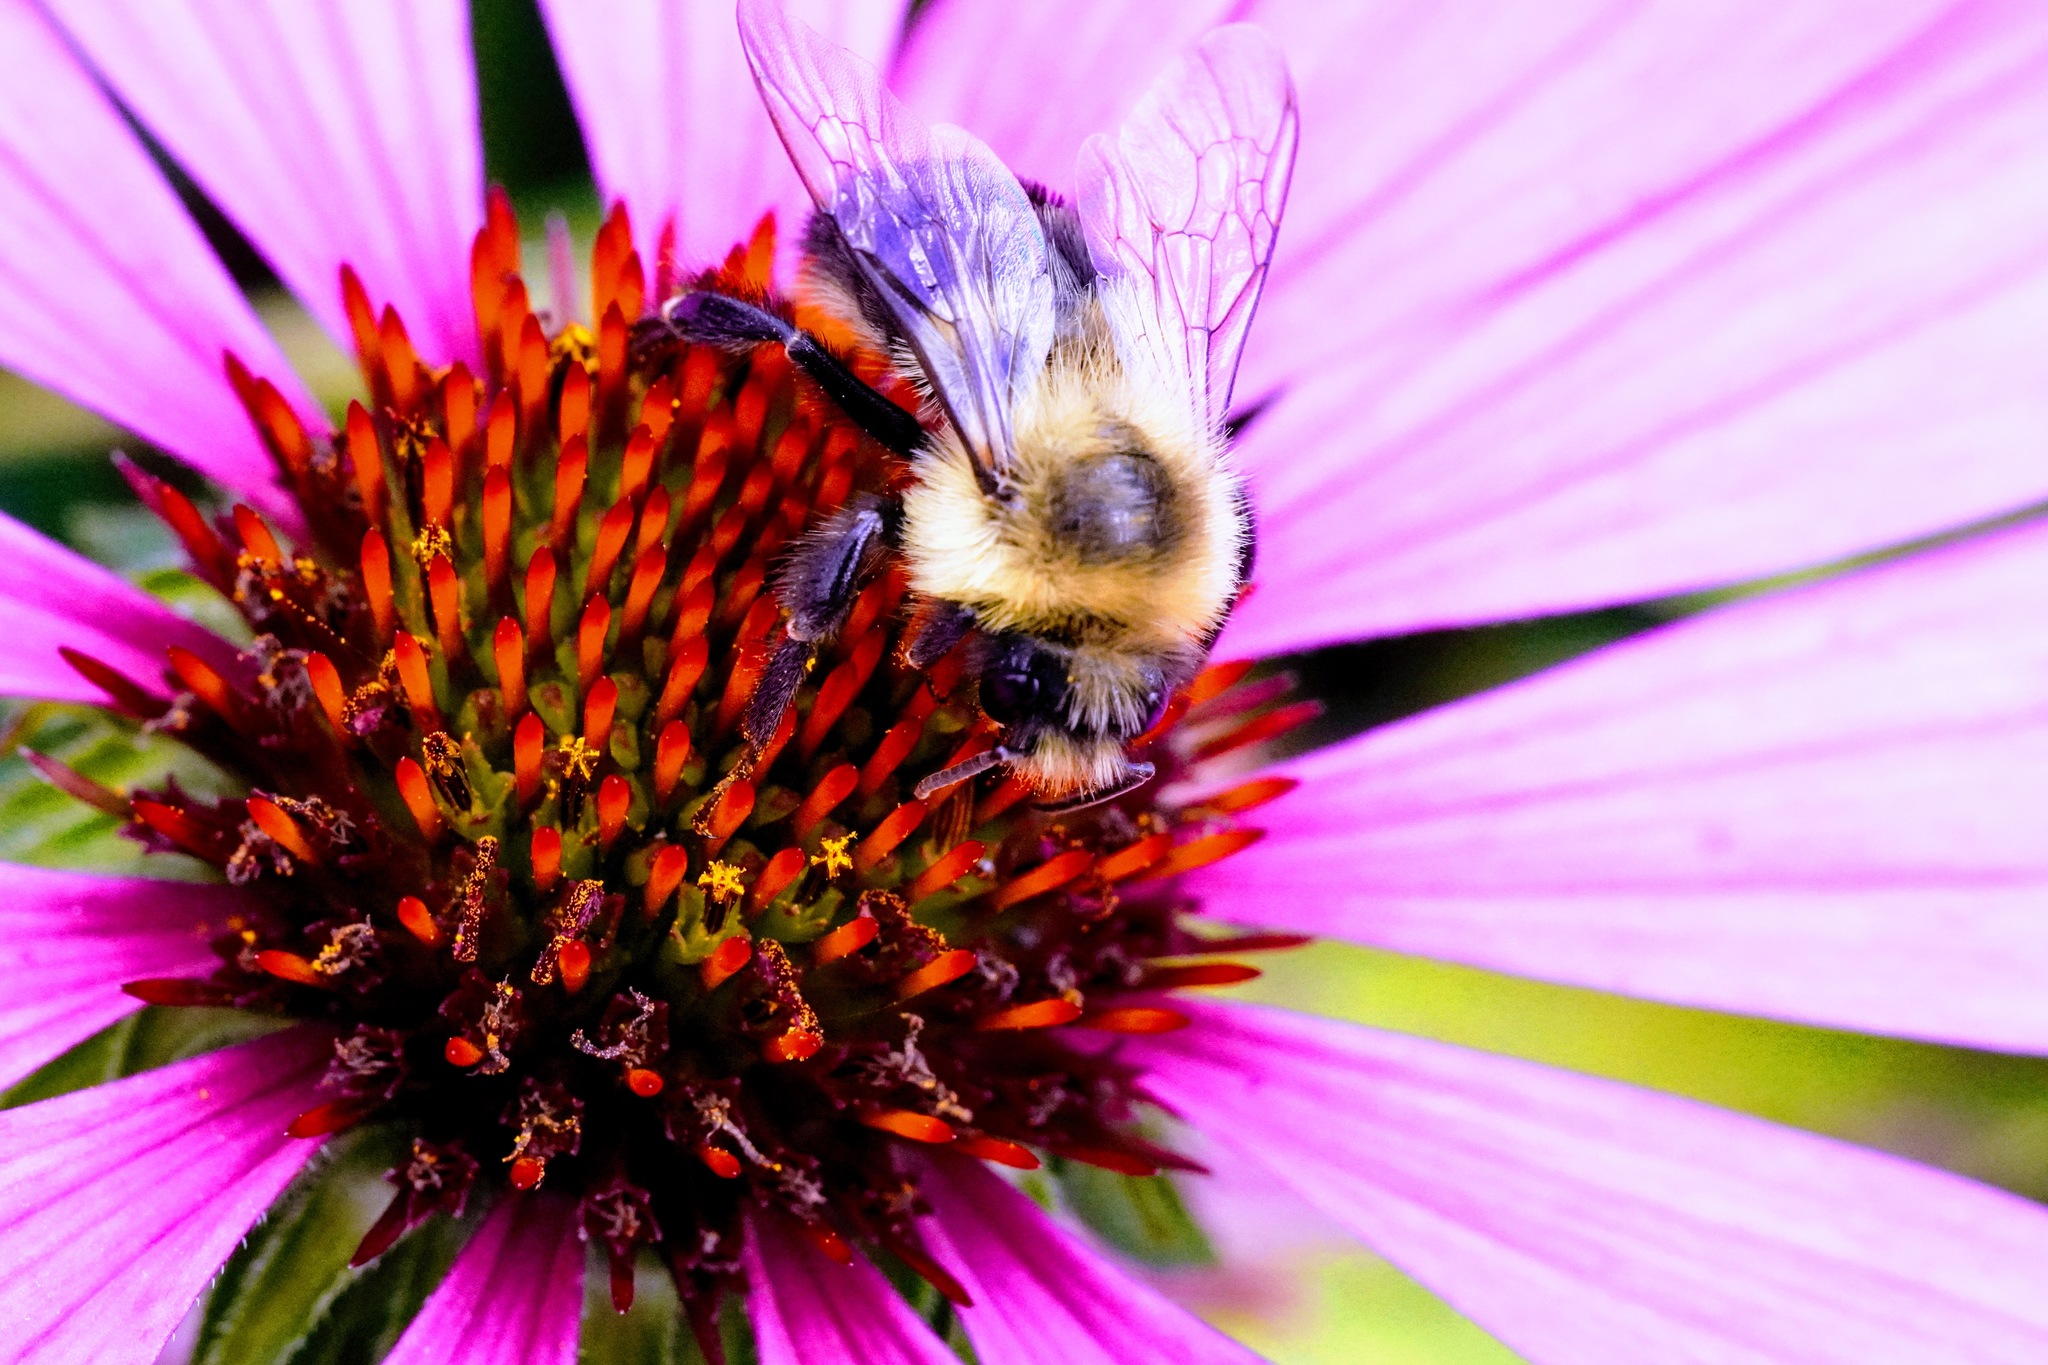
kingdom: Animalia
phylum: Arthropoda
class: Insecta
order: Hymenoptera
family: Apidae
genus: Bombus
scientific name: Bombus impatiens
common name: Common eastern bumble bee
